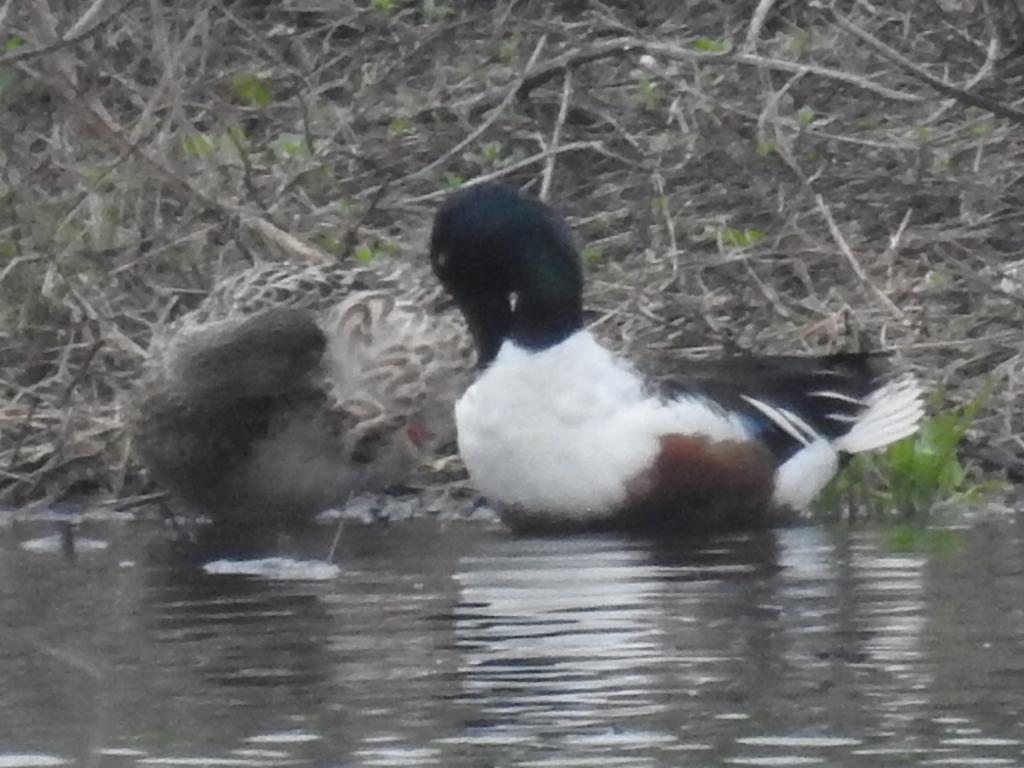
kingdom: Animalia
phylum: Chordata
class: Aves
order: Anseriformes
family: Anatidae
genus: Spatula
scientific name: Spatula clypeata
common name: Northern shoveler
